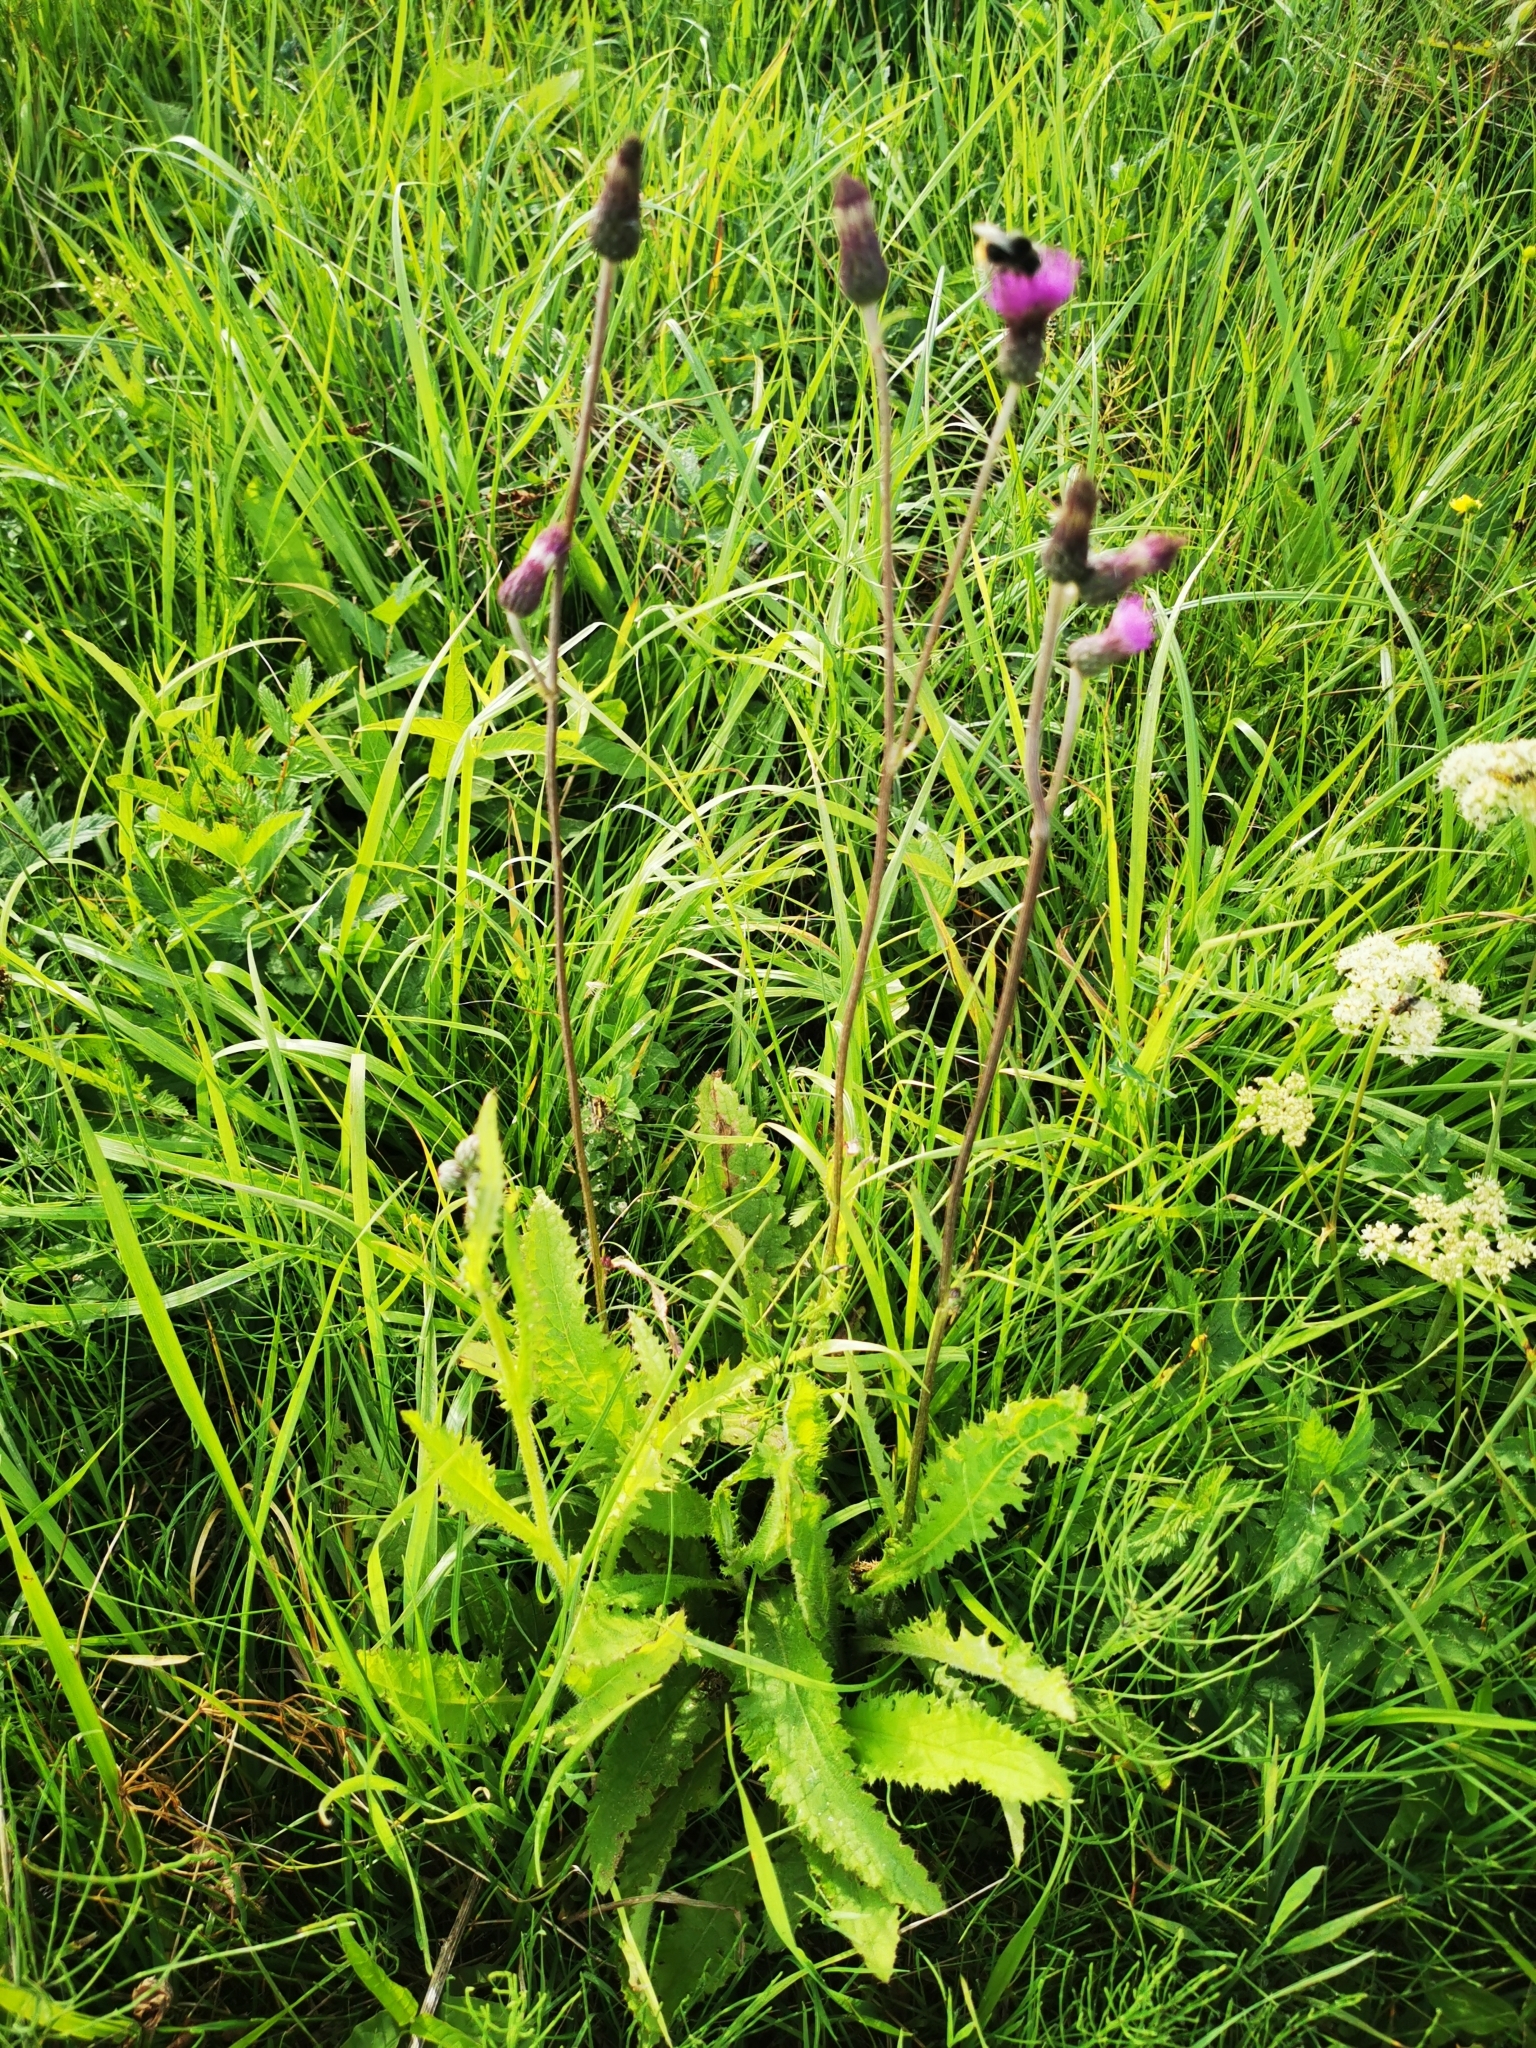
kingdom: Plantae
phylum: Tracheophyta
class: Magnoliopsida
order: Asterales
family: Asteraceae
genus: Cirsium
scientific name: Cirsium rivulare
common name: Brook thistle
